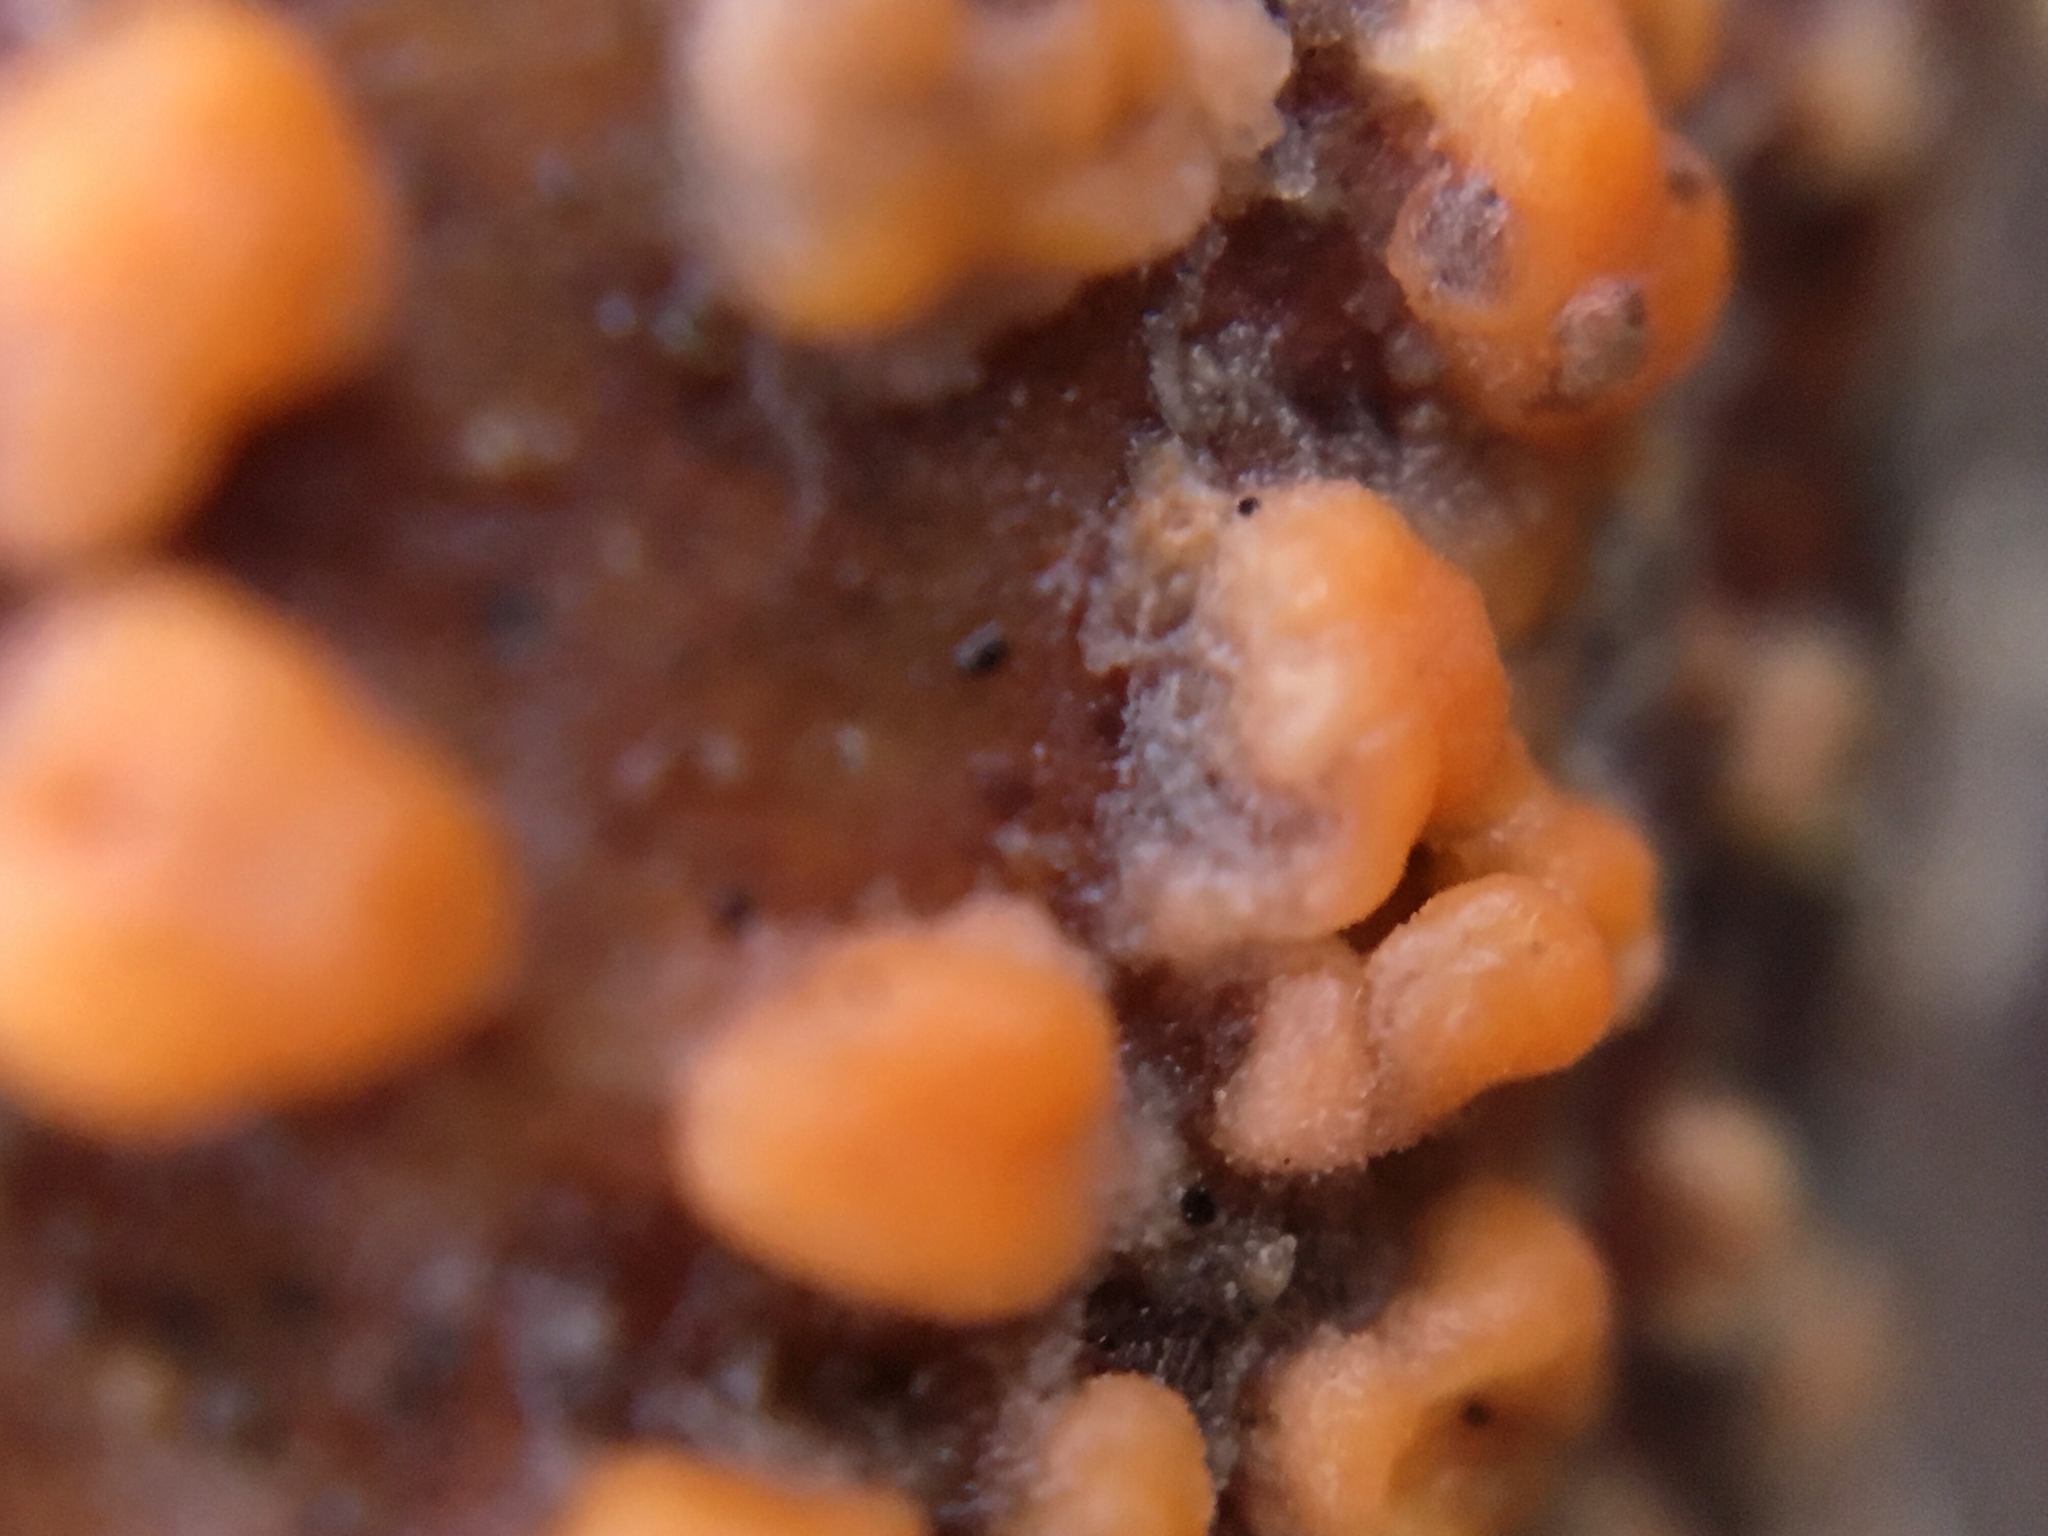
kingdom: Fungi
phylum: Basidiomycota
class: Dacrymycetes
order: Dacrymycetales
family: Dacrymycetaceae
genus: Dacrymyces
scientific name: Dacrymyces stillatus
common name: Common jelly spot
